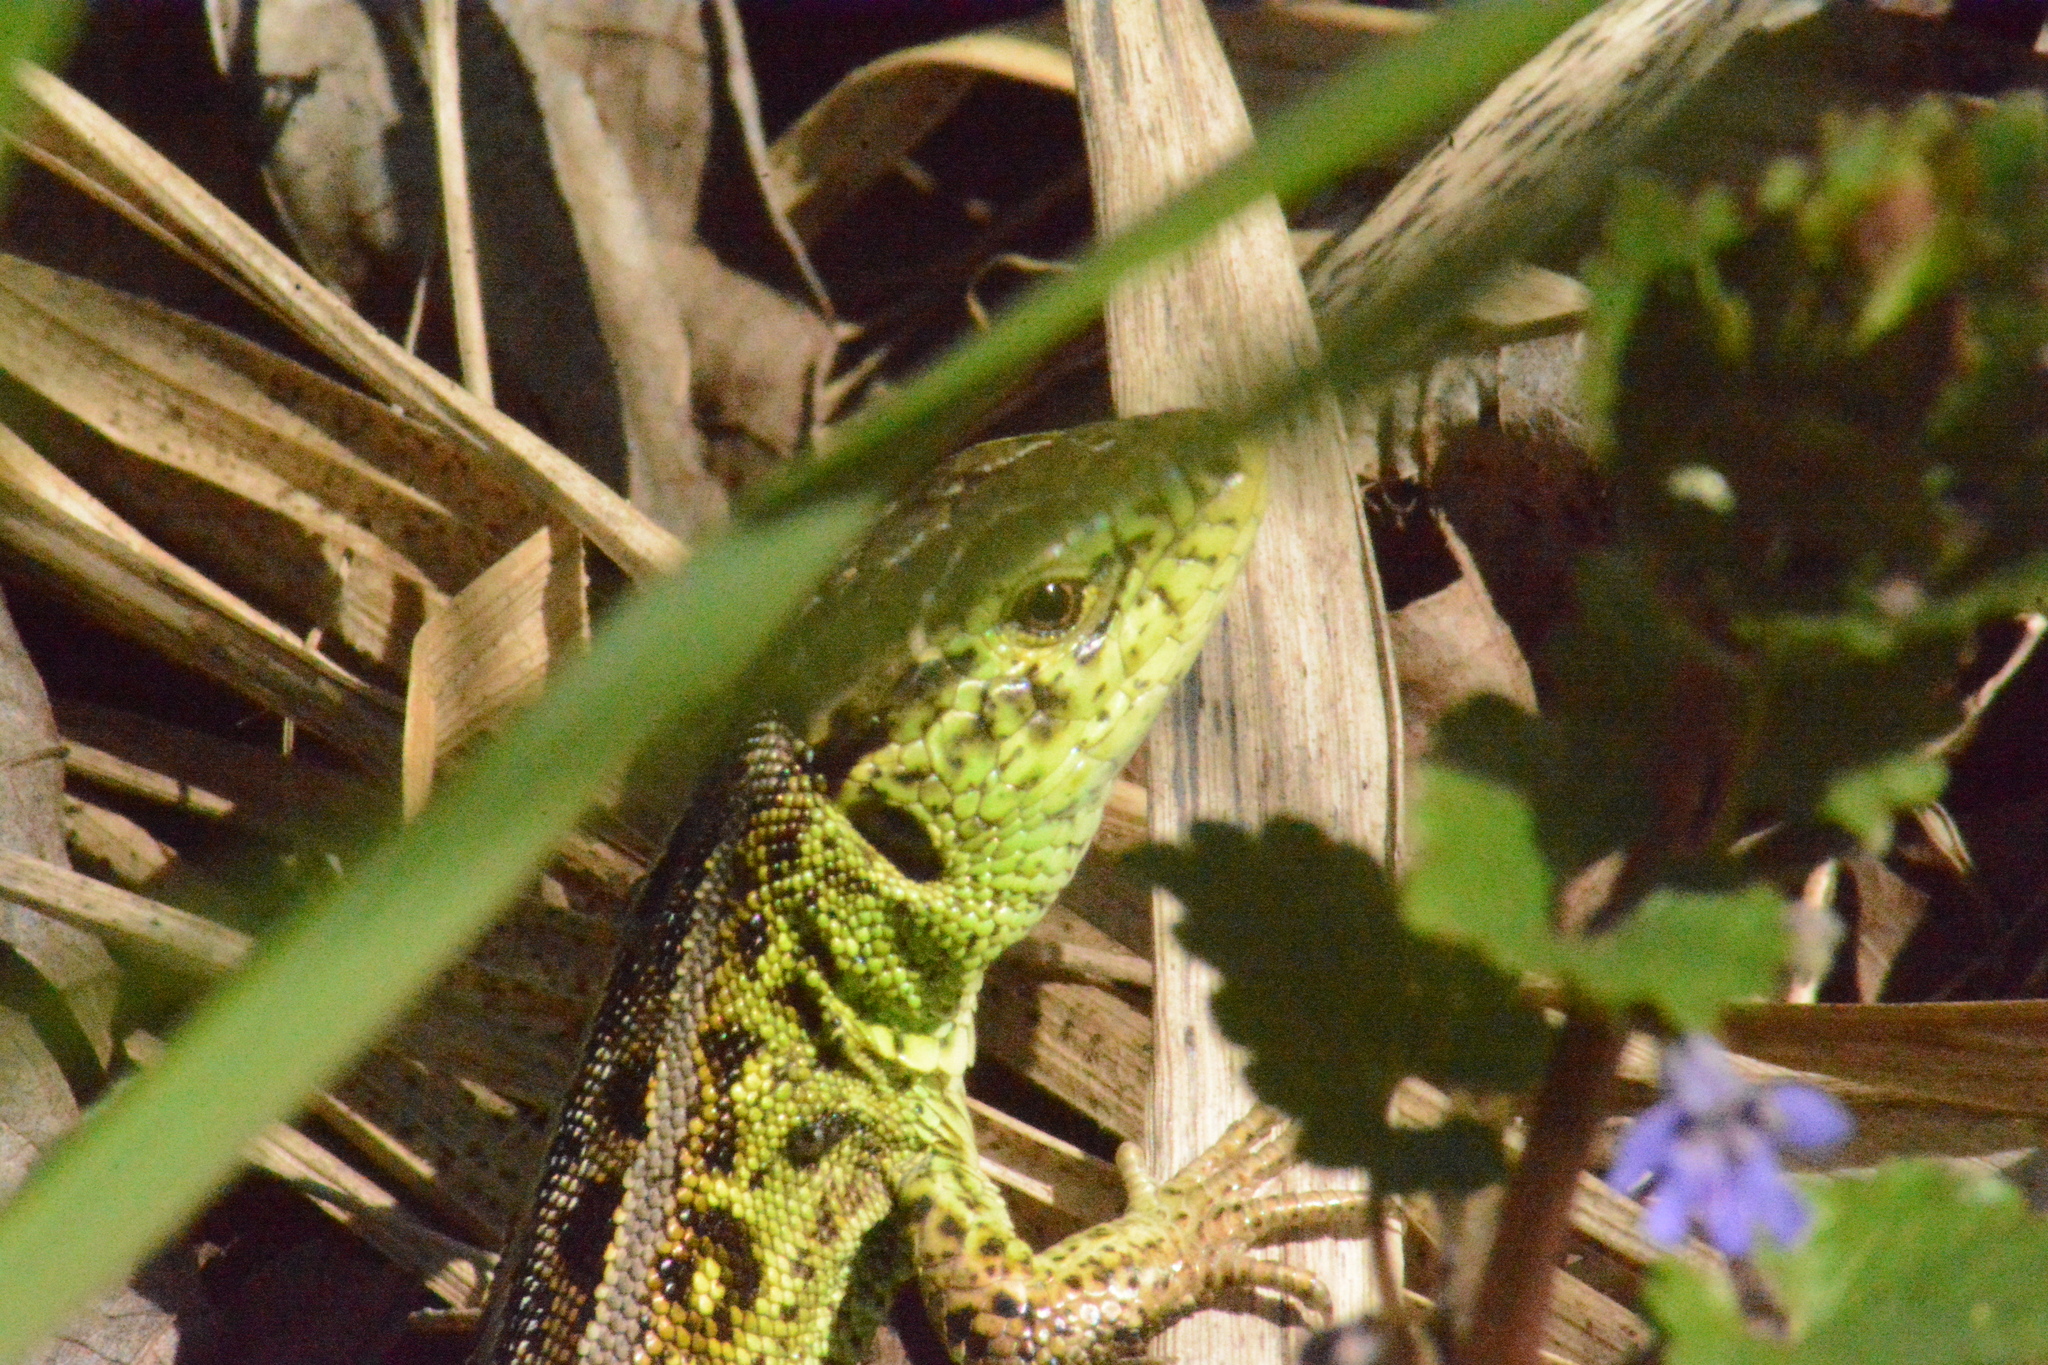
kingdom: Animalia
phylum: Chordata
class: Squamata
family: Lacertidae
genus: Lacerta
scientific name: Lacerta agilis
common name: Sand lizard
